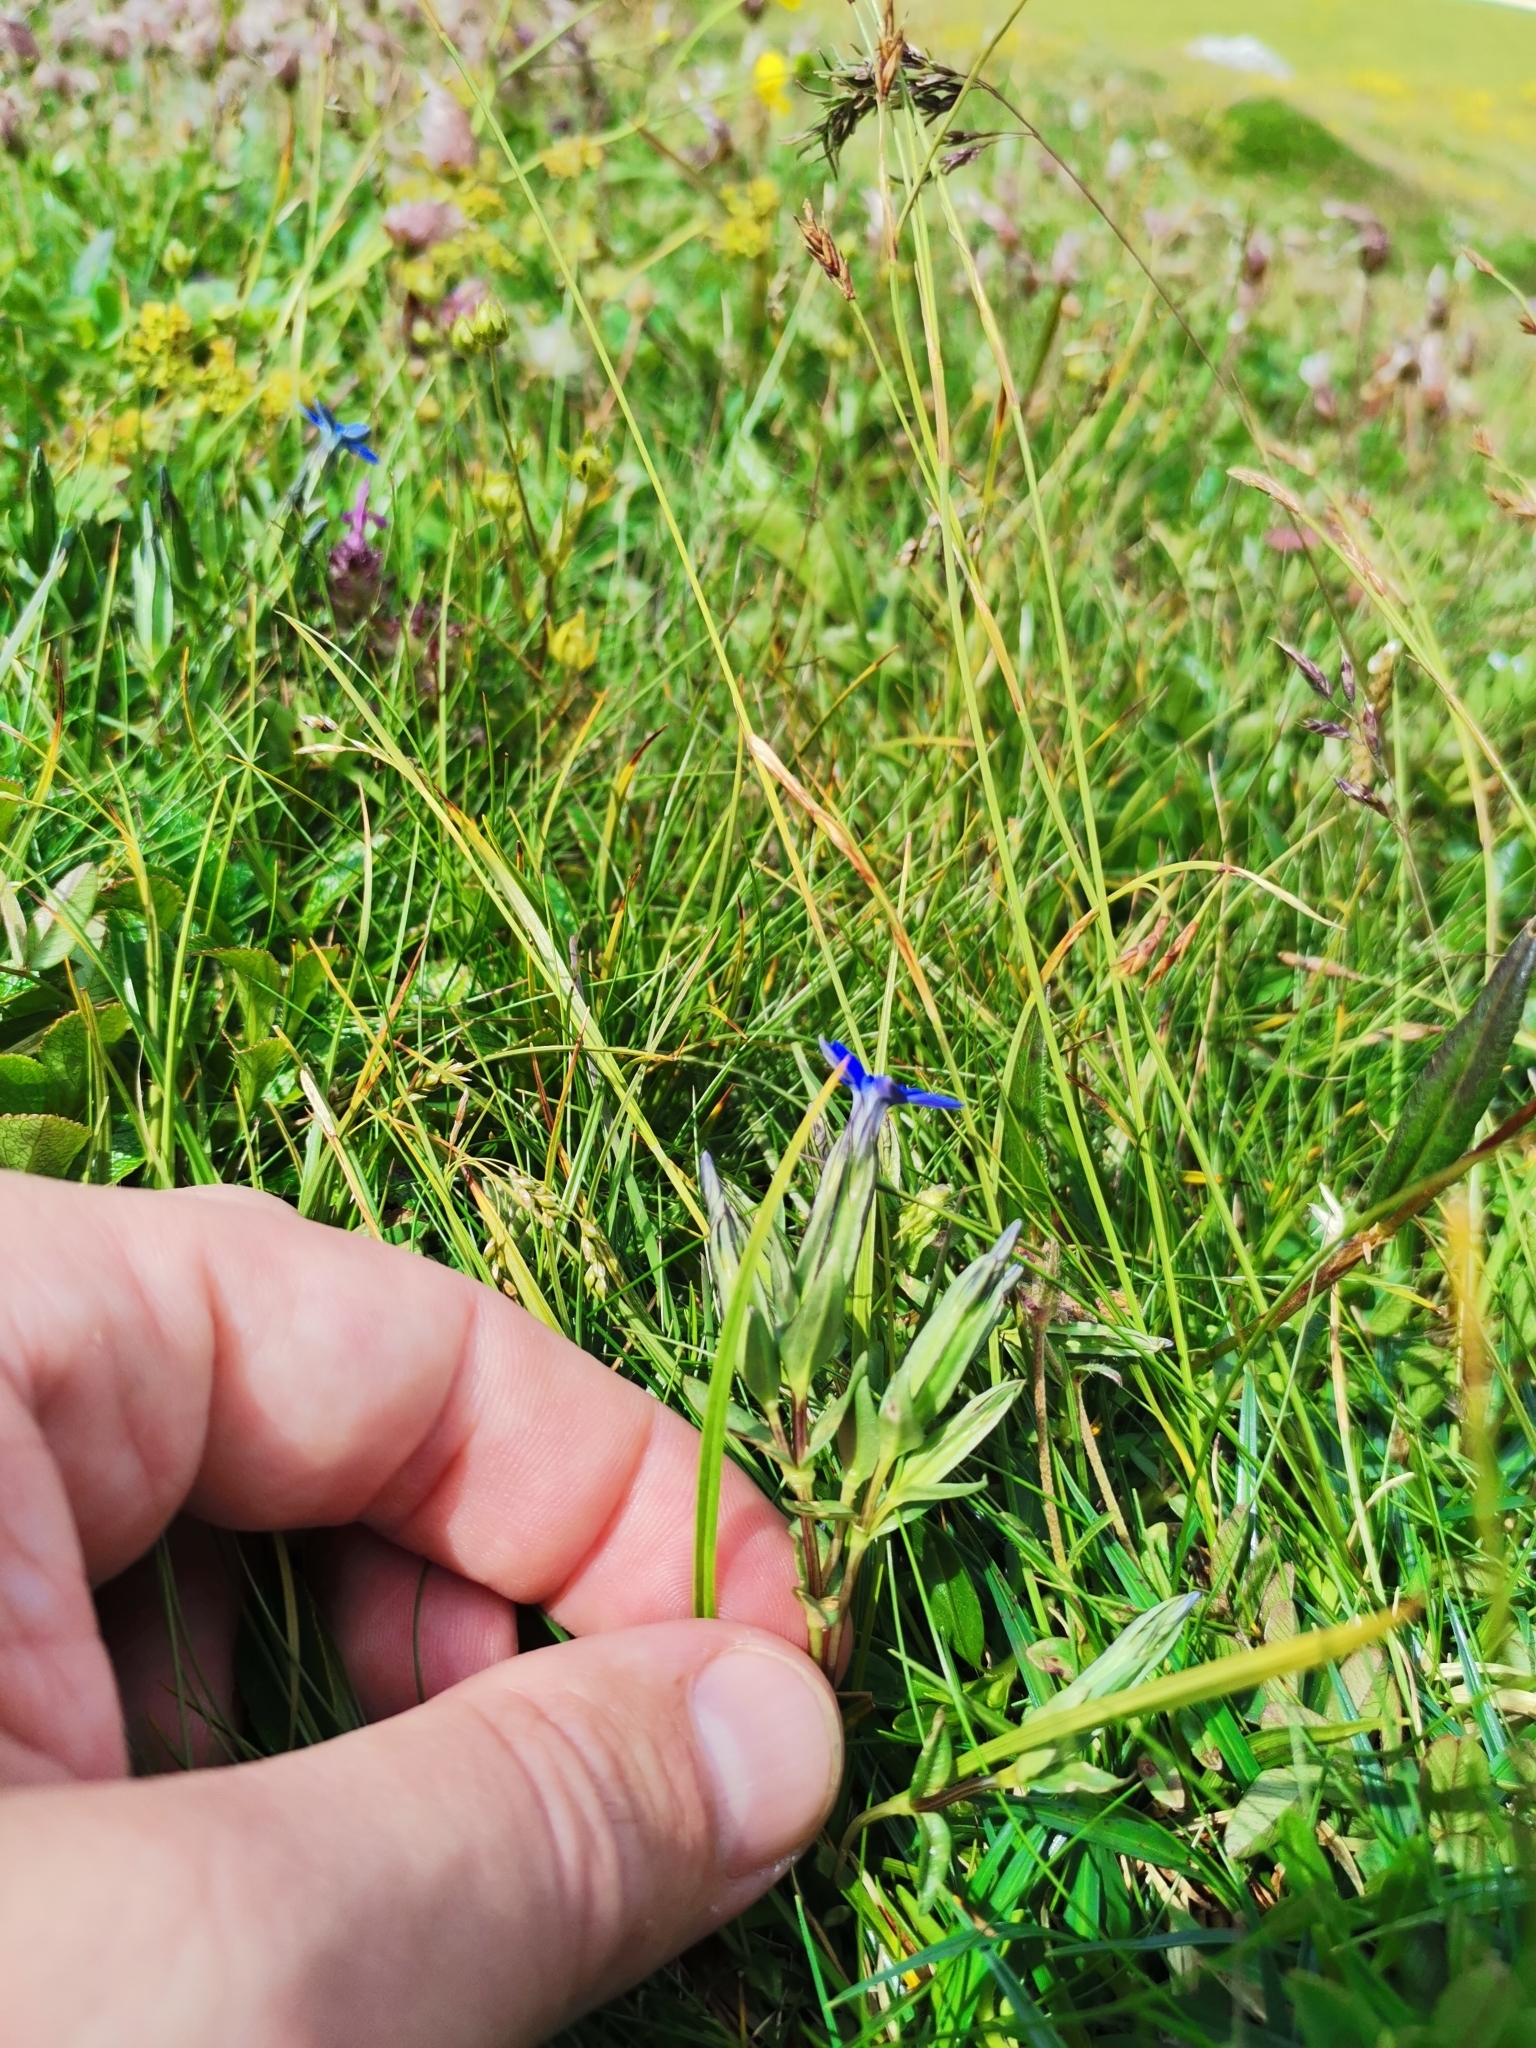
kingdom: Plantae
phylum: Tracheophyta
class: Magnoliopsida
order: Gentianales
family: Gentianaceae
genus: Gentiana
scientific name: Gentiana nivalis
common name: Alpine gentian
